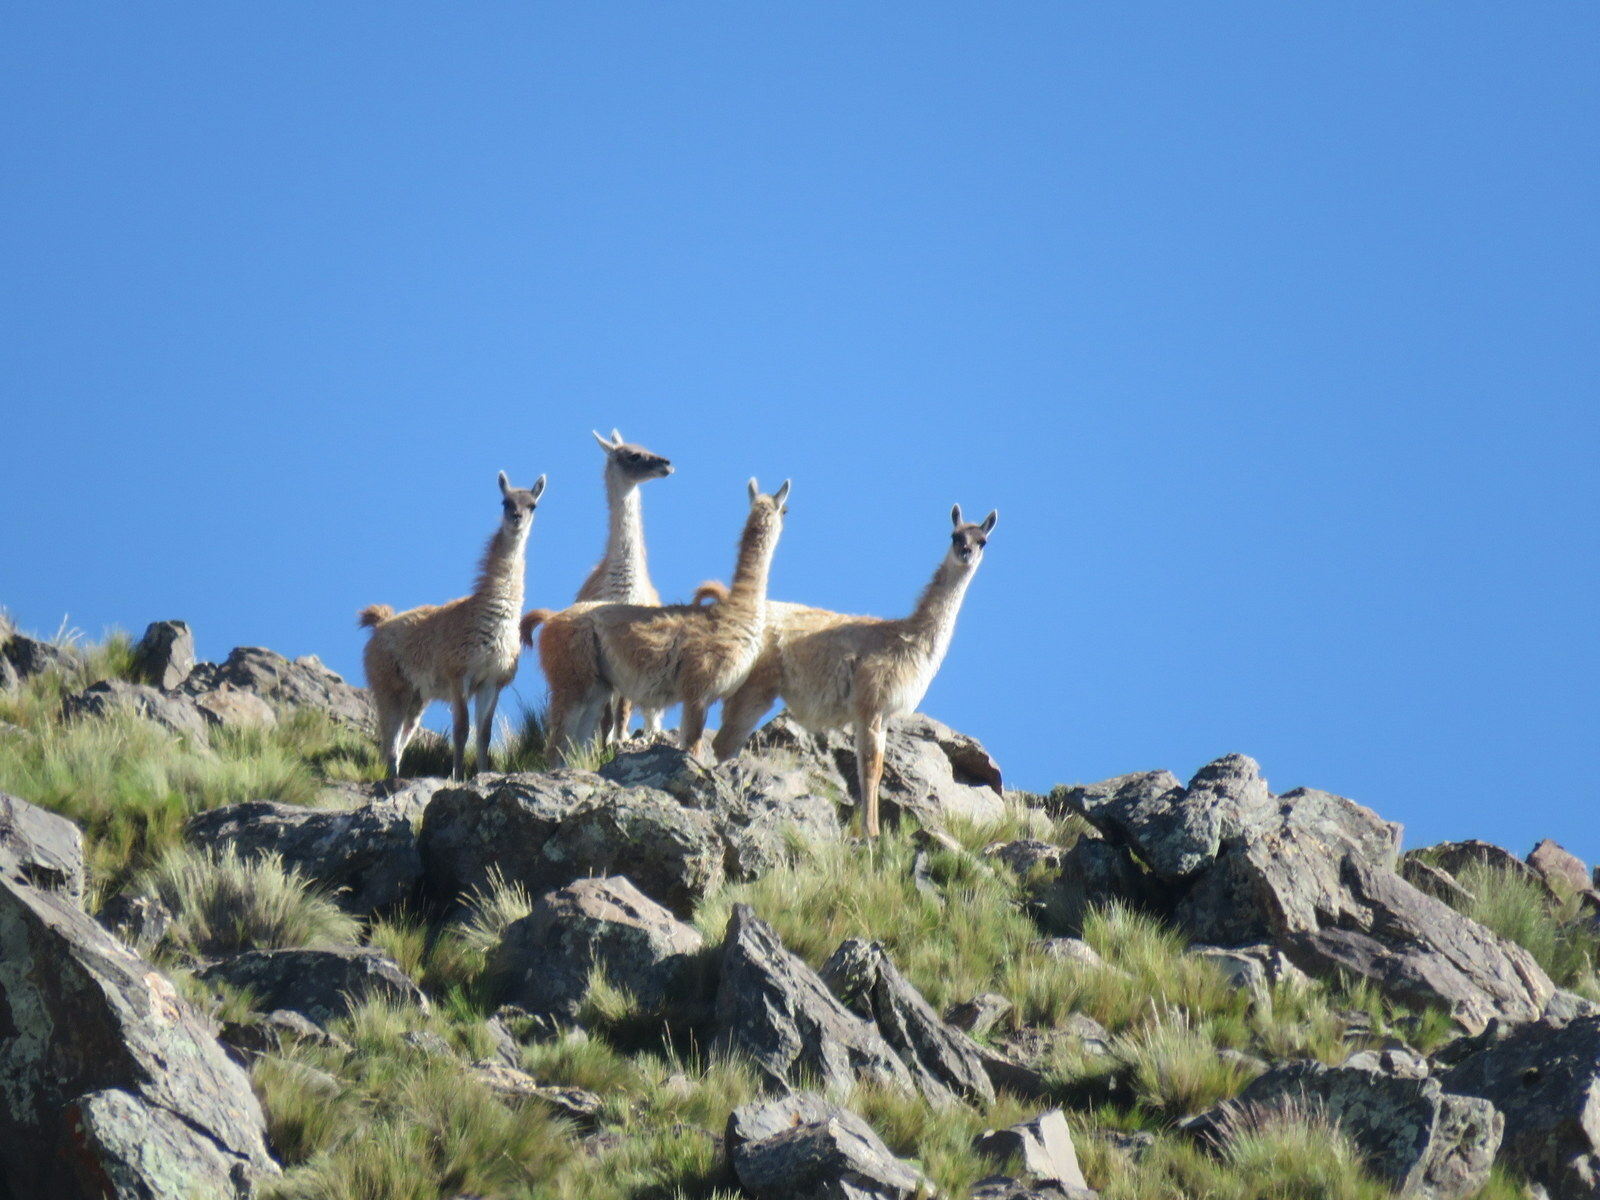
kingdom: Animalia
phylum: Chordata
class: Mammalia
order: Artiodactyla
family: Camelidae
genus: Lama
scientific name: Lama glama
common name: Llama
